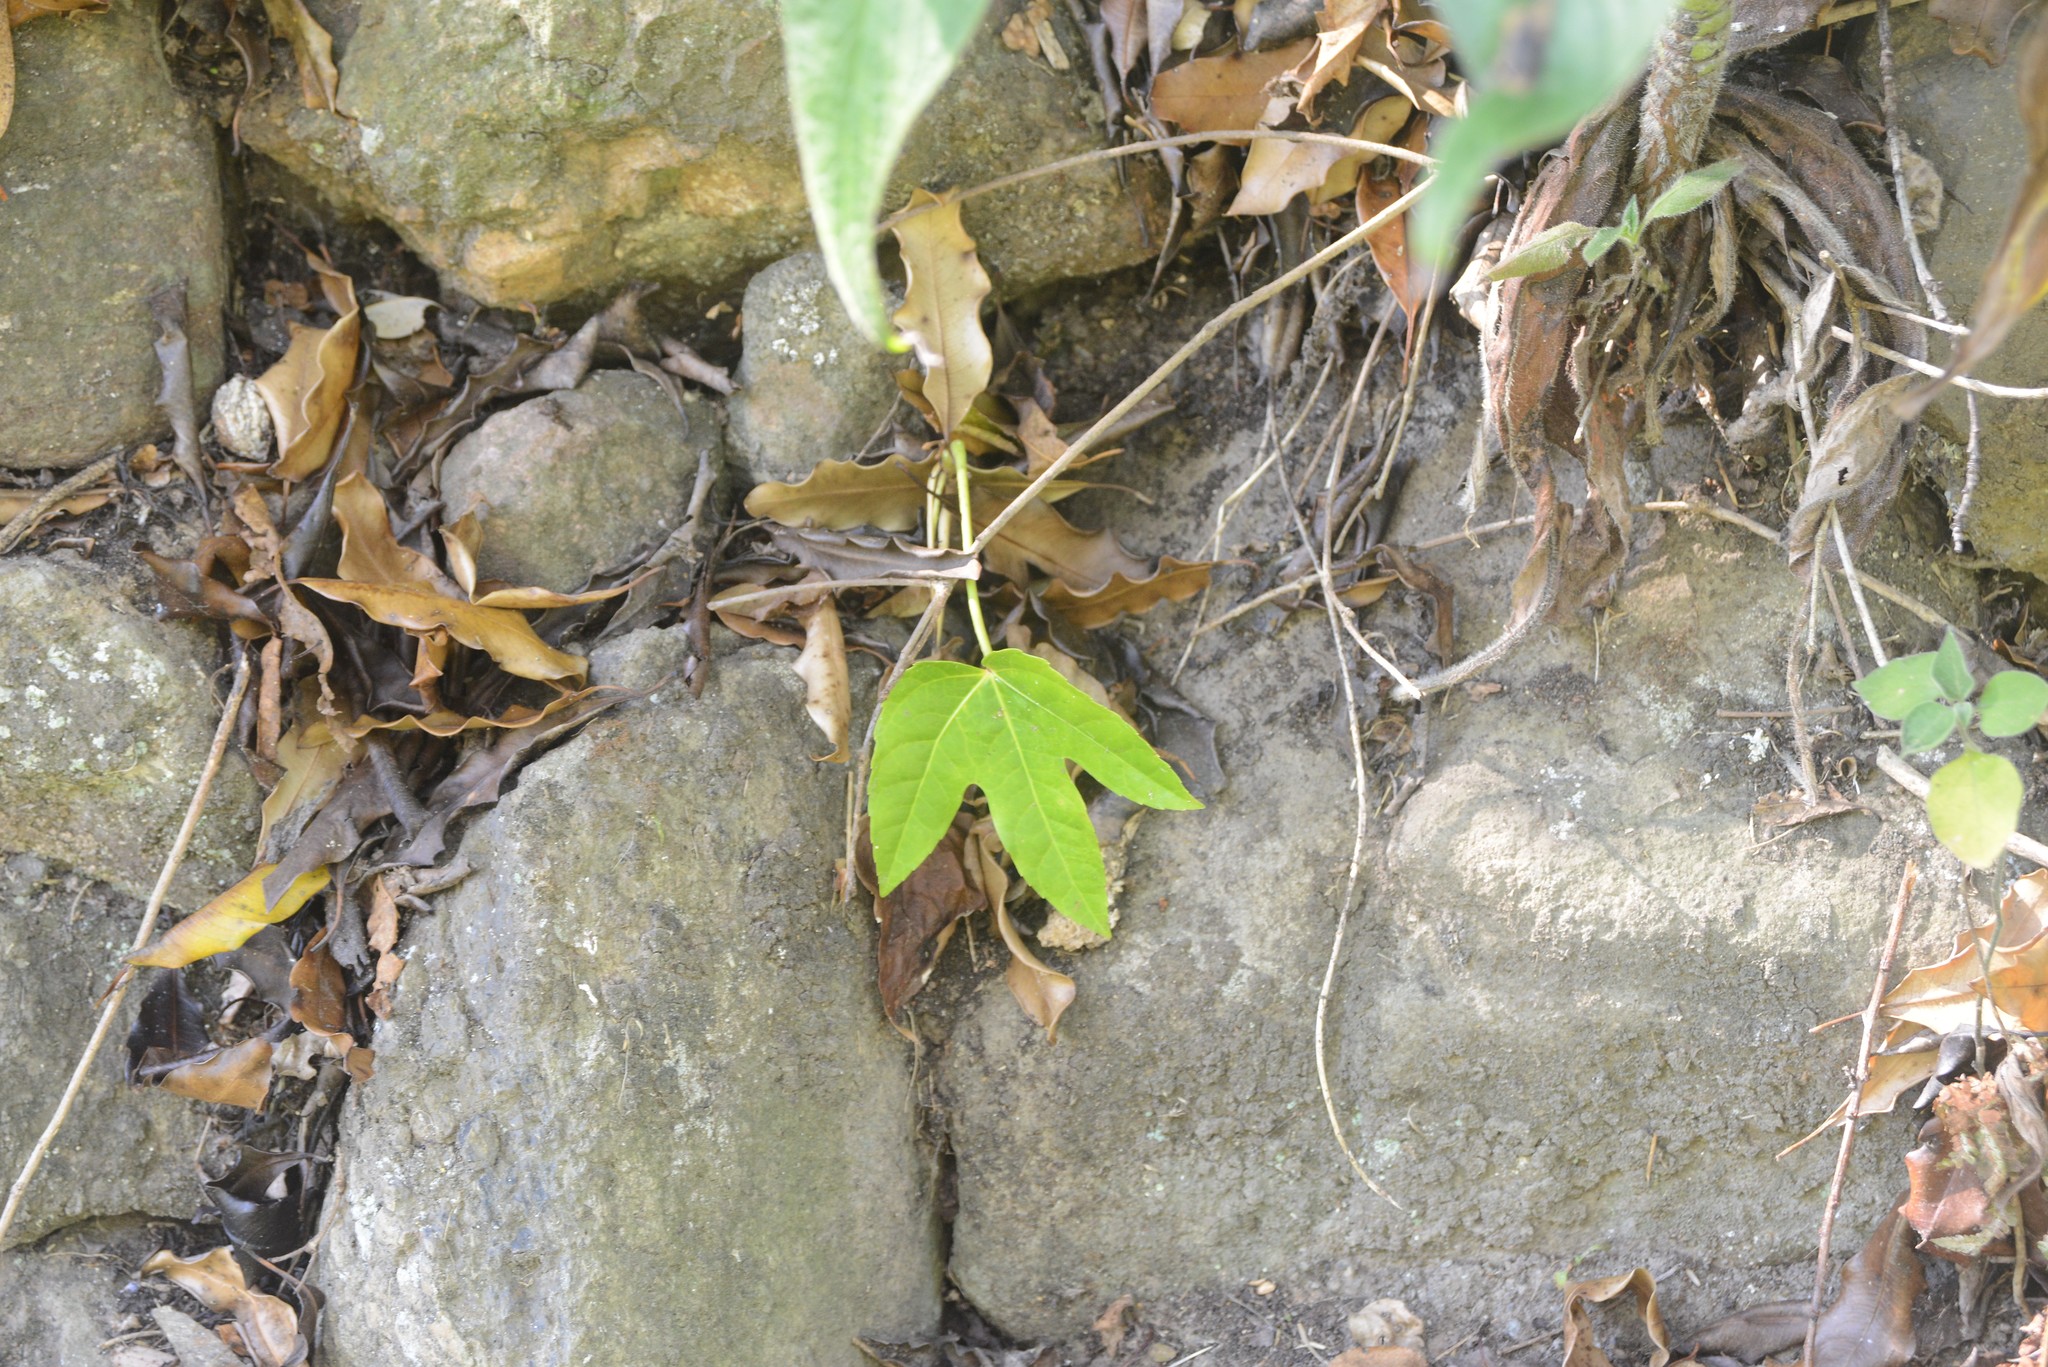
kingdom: Plantae
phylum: Tracheophyta
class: Magnoliopsida
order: Apiales
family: Araliaceae
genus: Fatsia
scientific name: Fatsia japonica
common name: Fatsia
